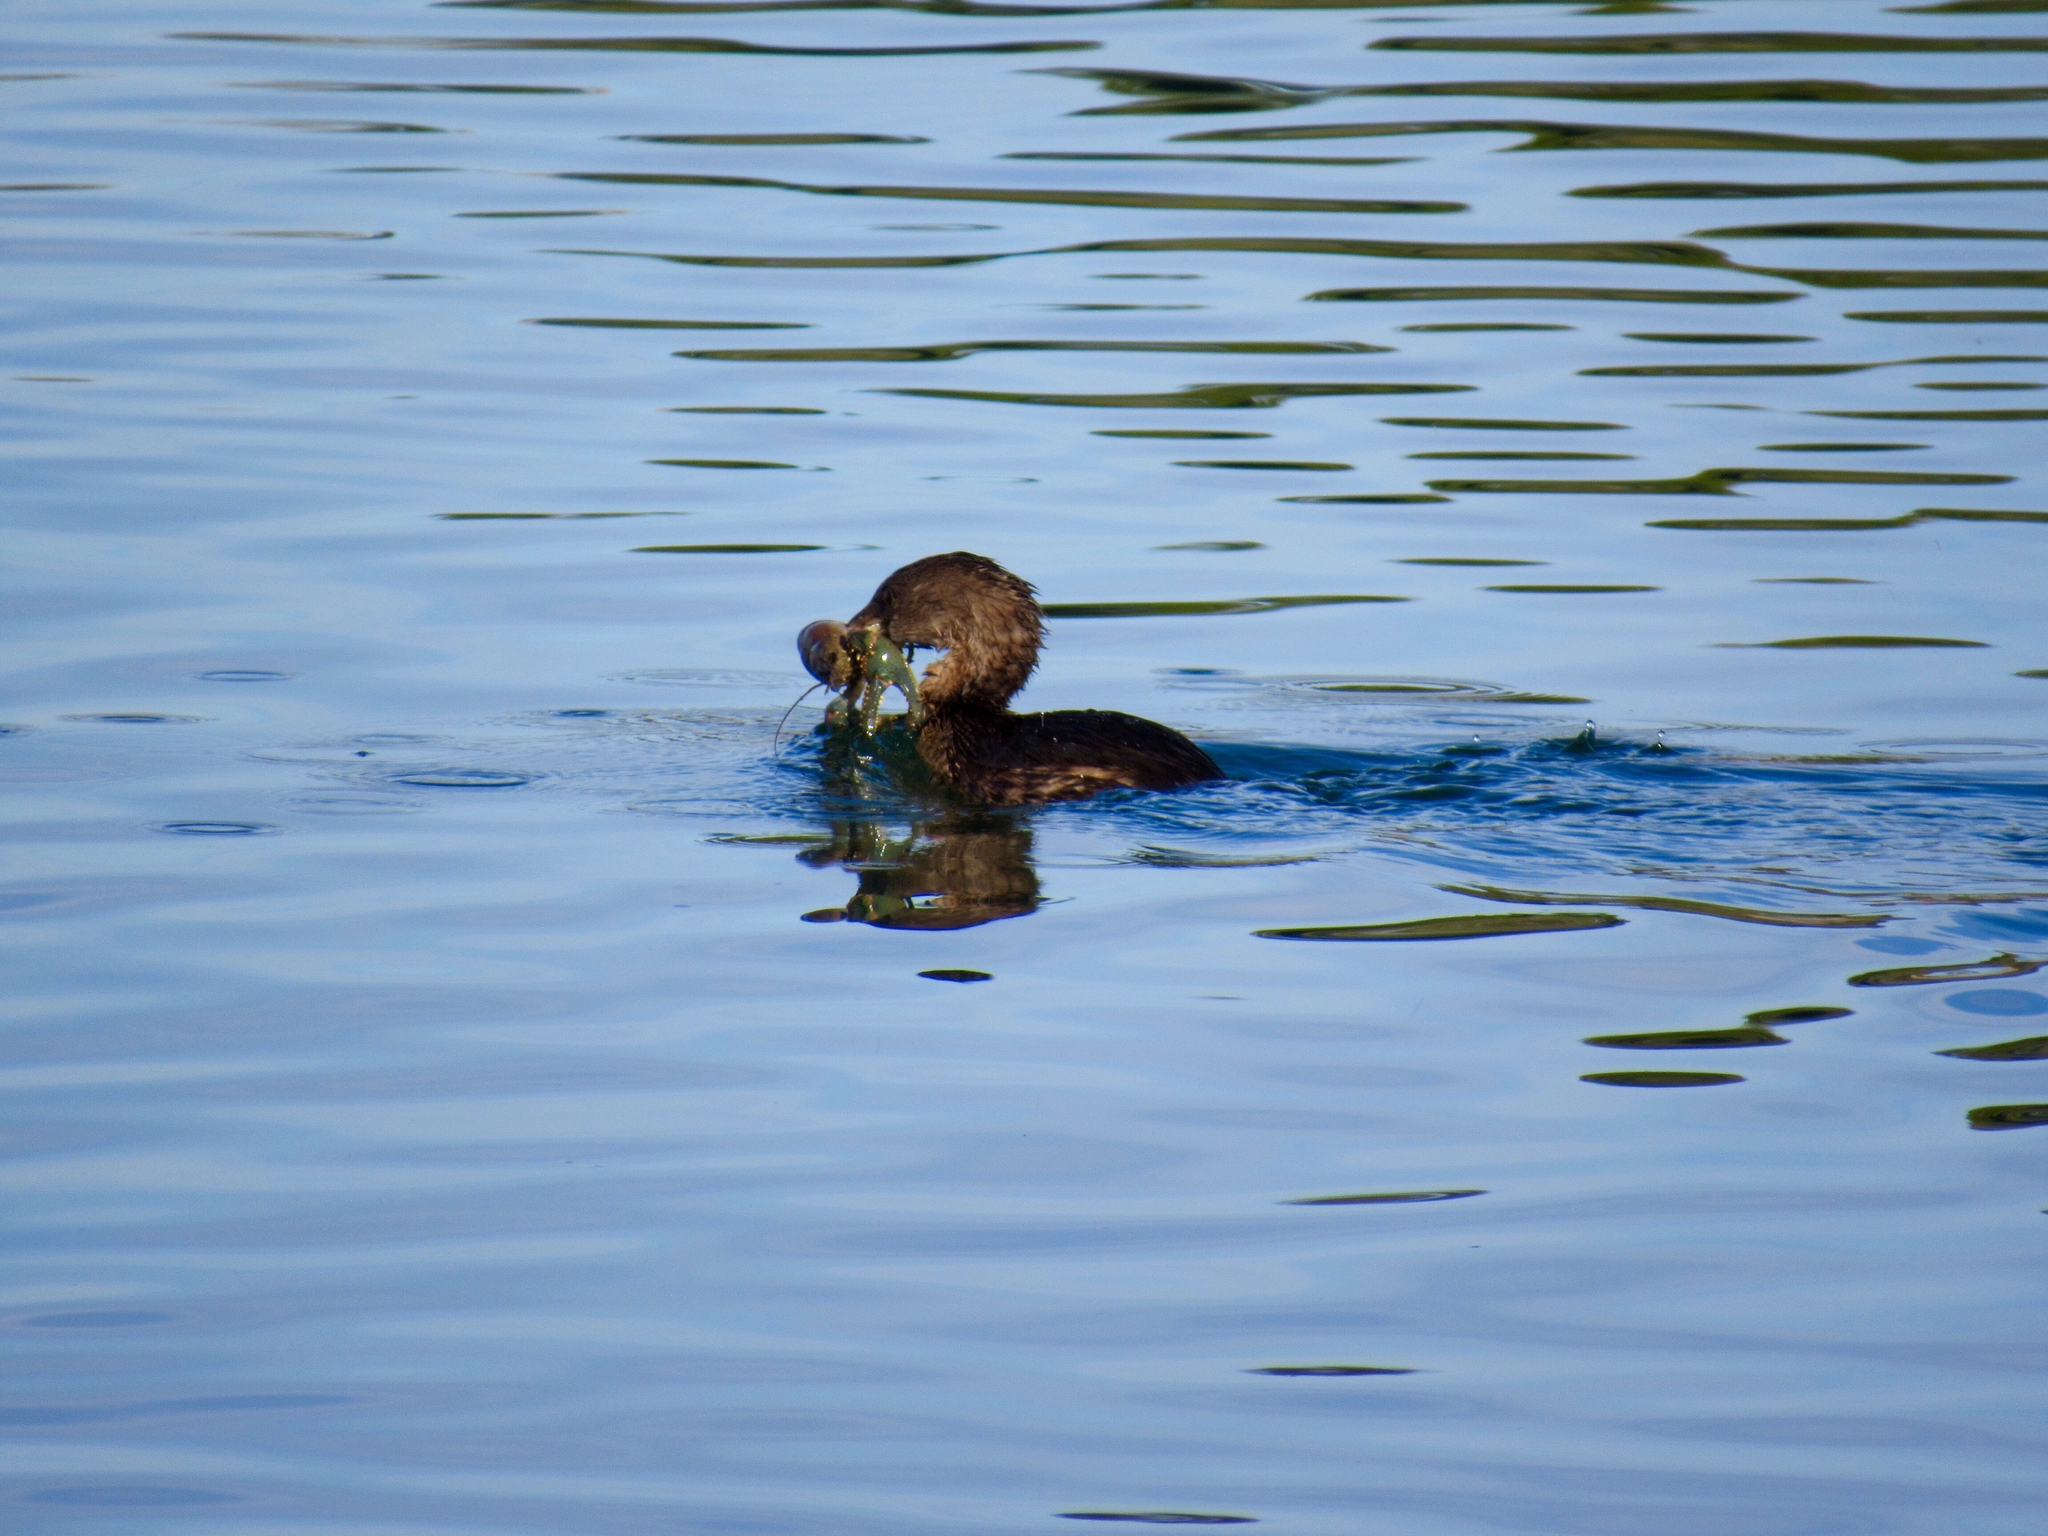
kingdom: Animalia
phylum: Chordata
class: Aves
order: Podicipediformes
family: Podicipedidae
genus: Podilymbus
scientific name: Podilymbus podiceps
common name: Pied-billed grebe
